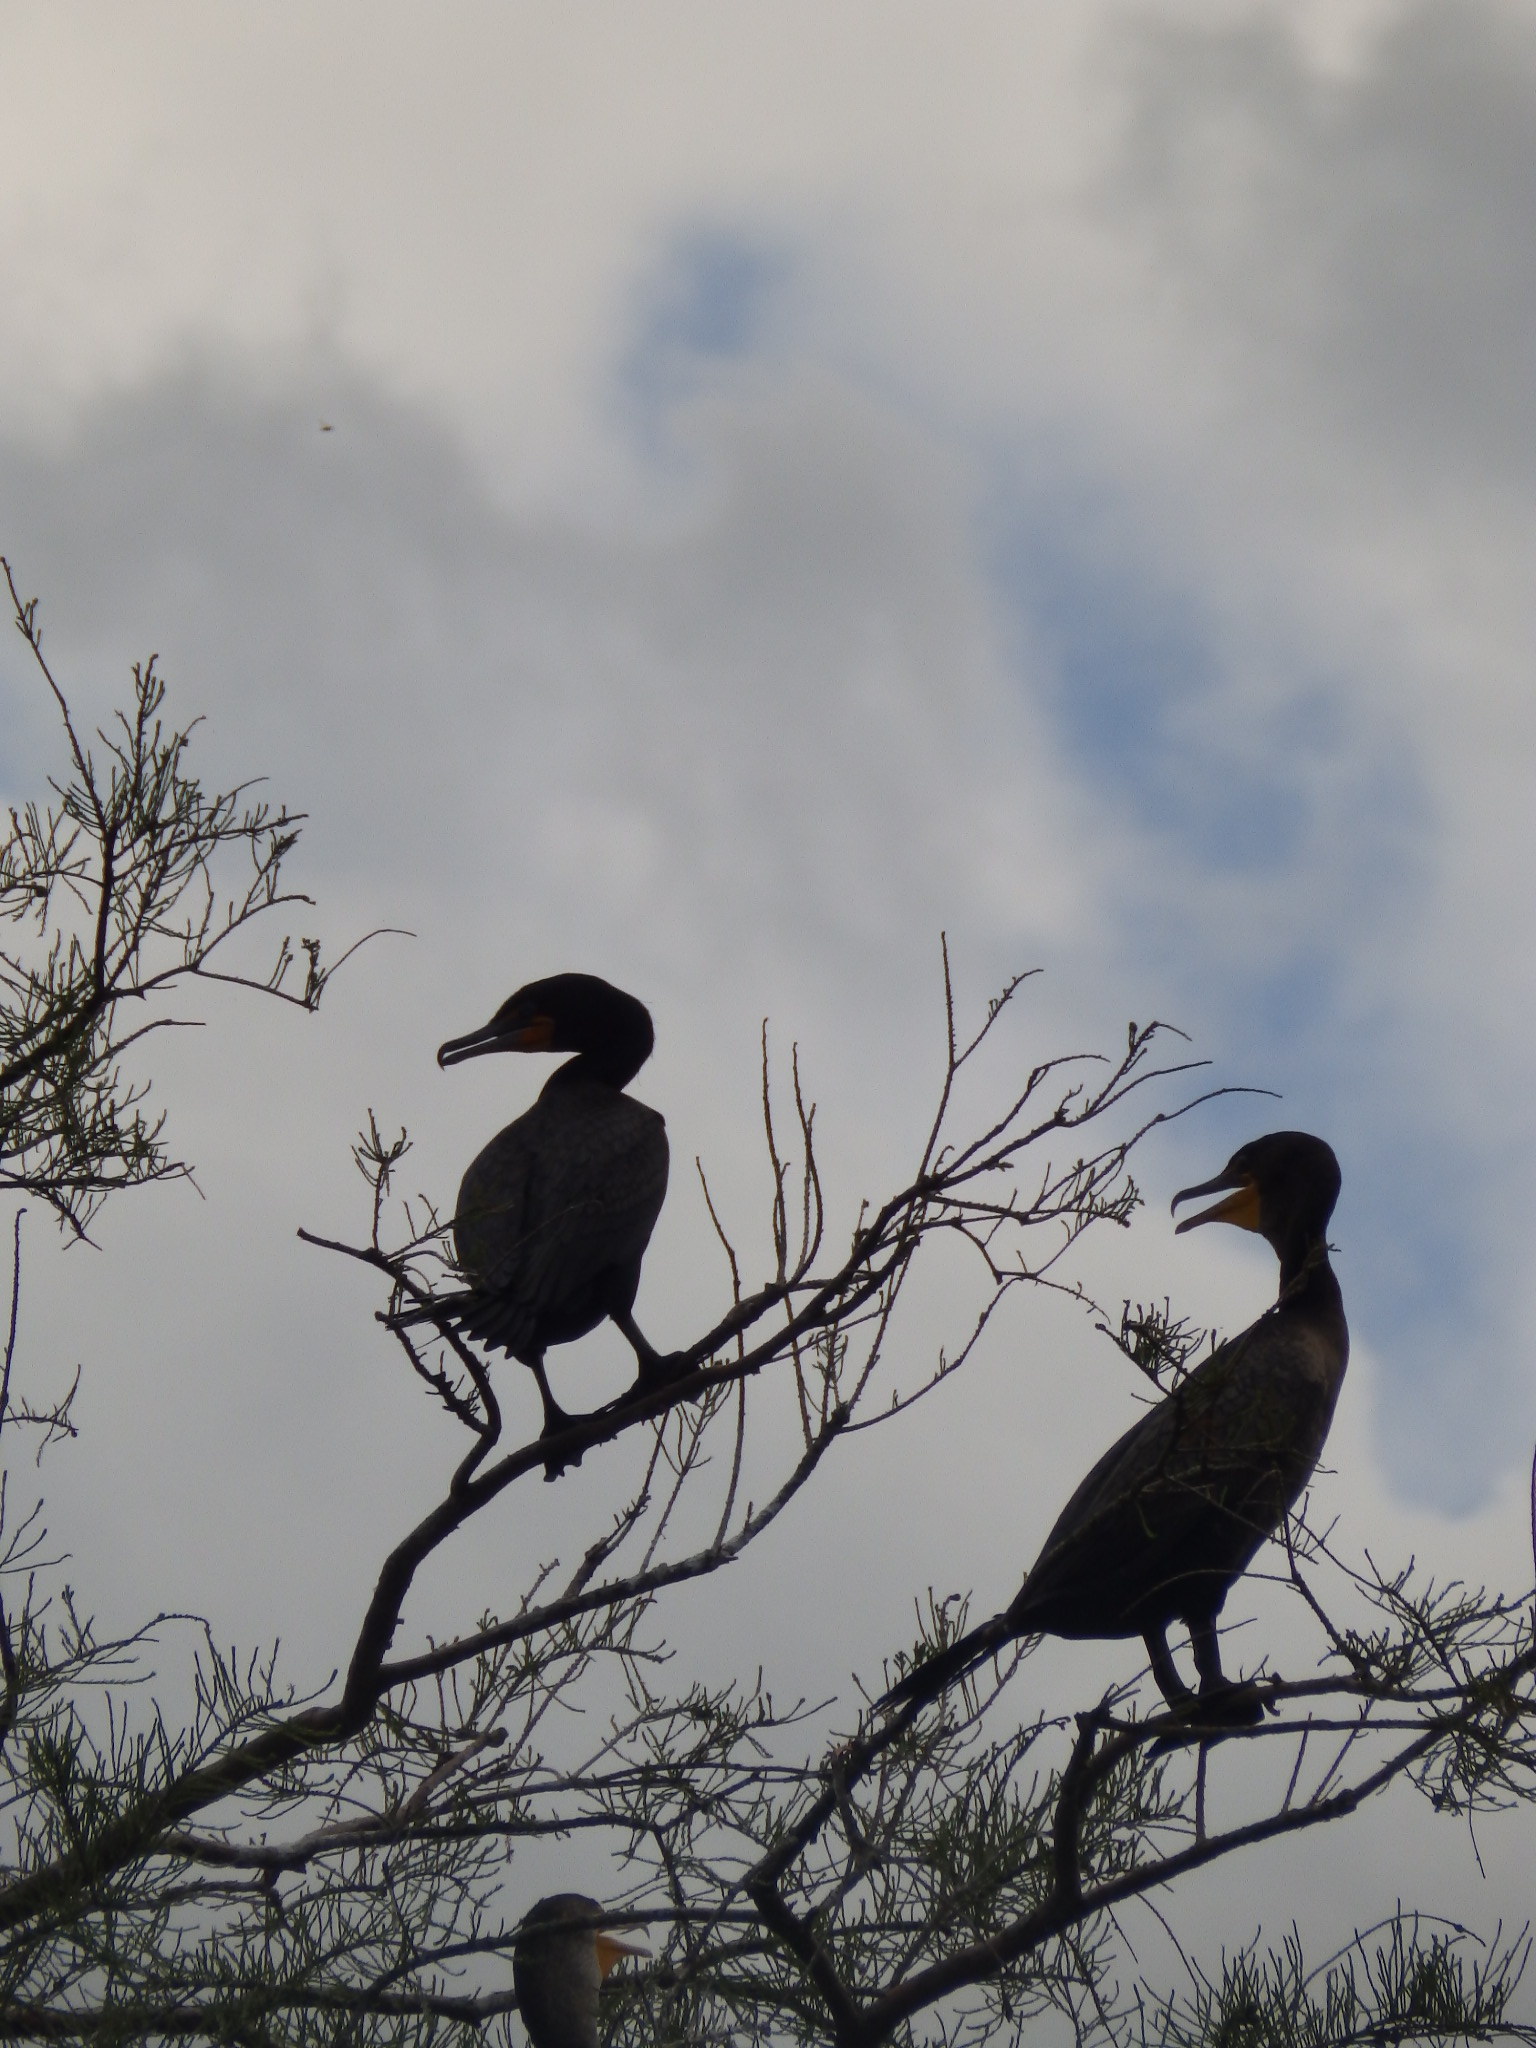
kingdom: Animalia
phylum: Chordata
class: Aves
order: Suliformes
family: Phalacrocoracidae
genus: Phalacrocorax
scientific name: Phalacrocorax auritus
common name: Double-crested cormorant
